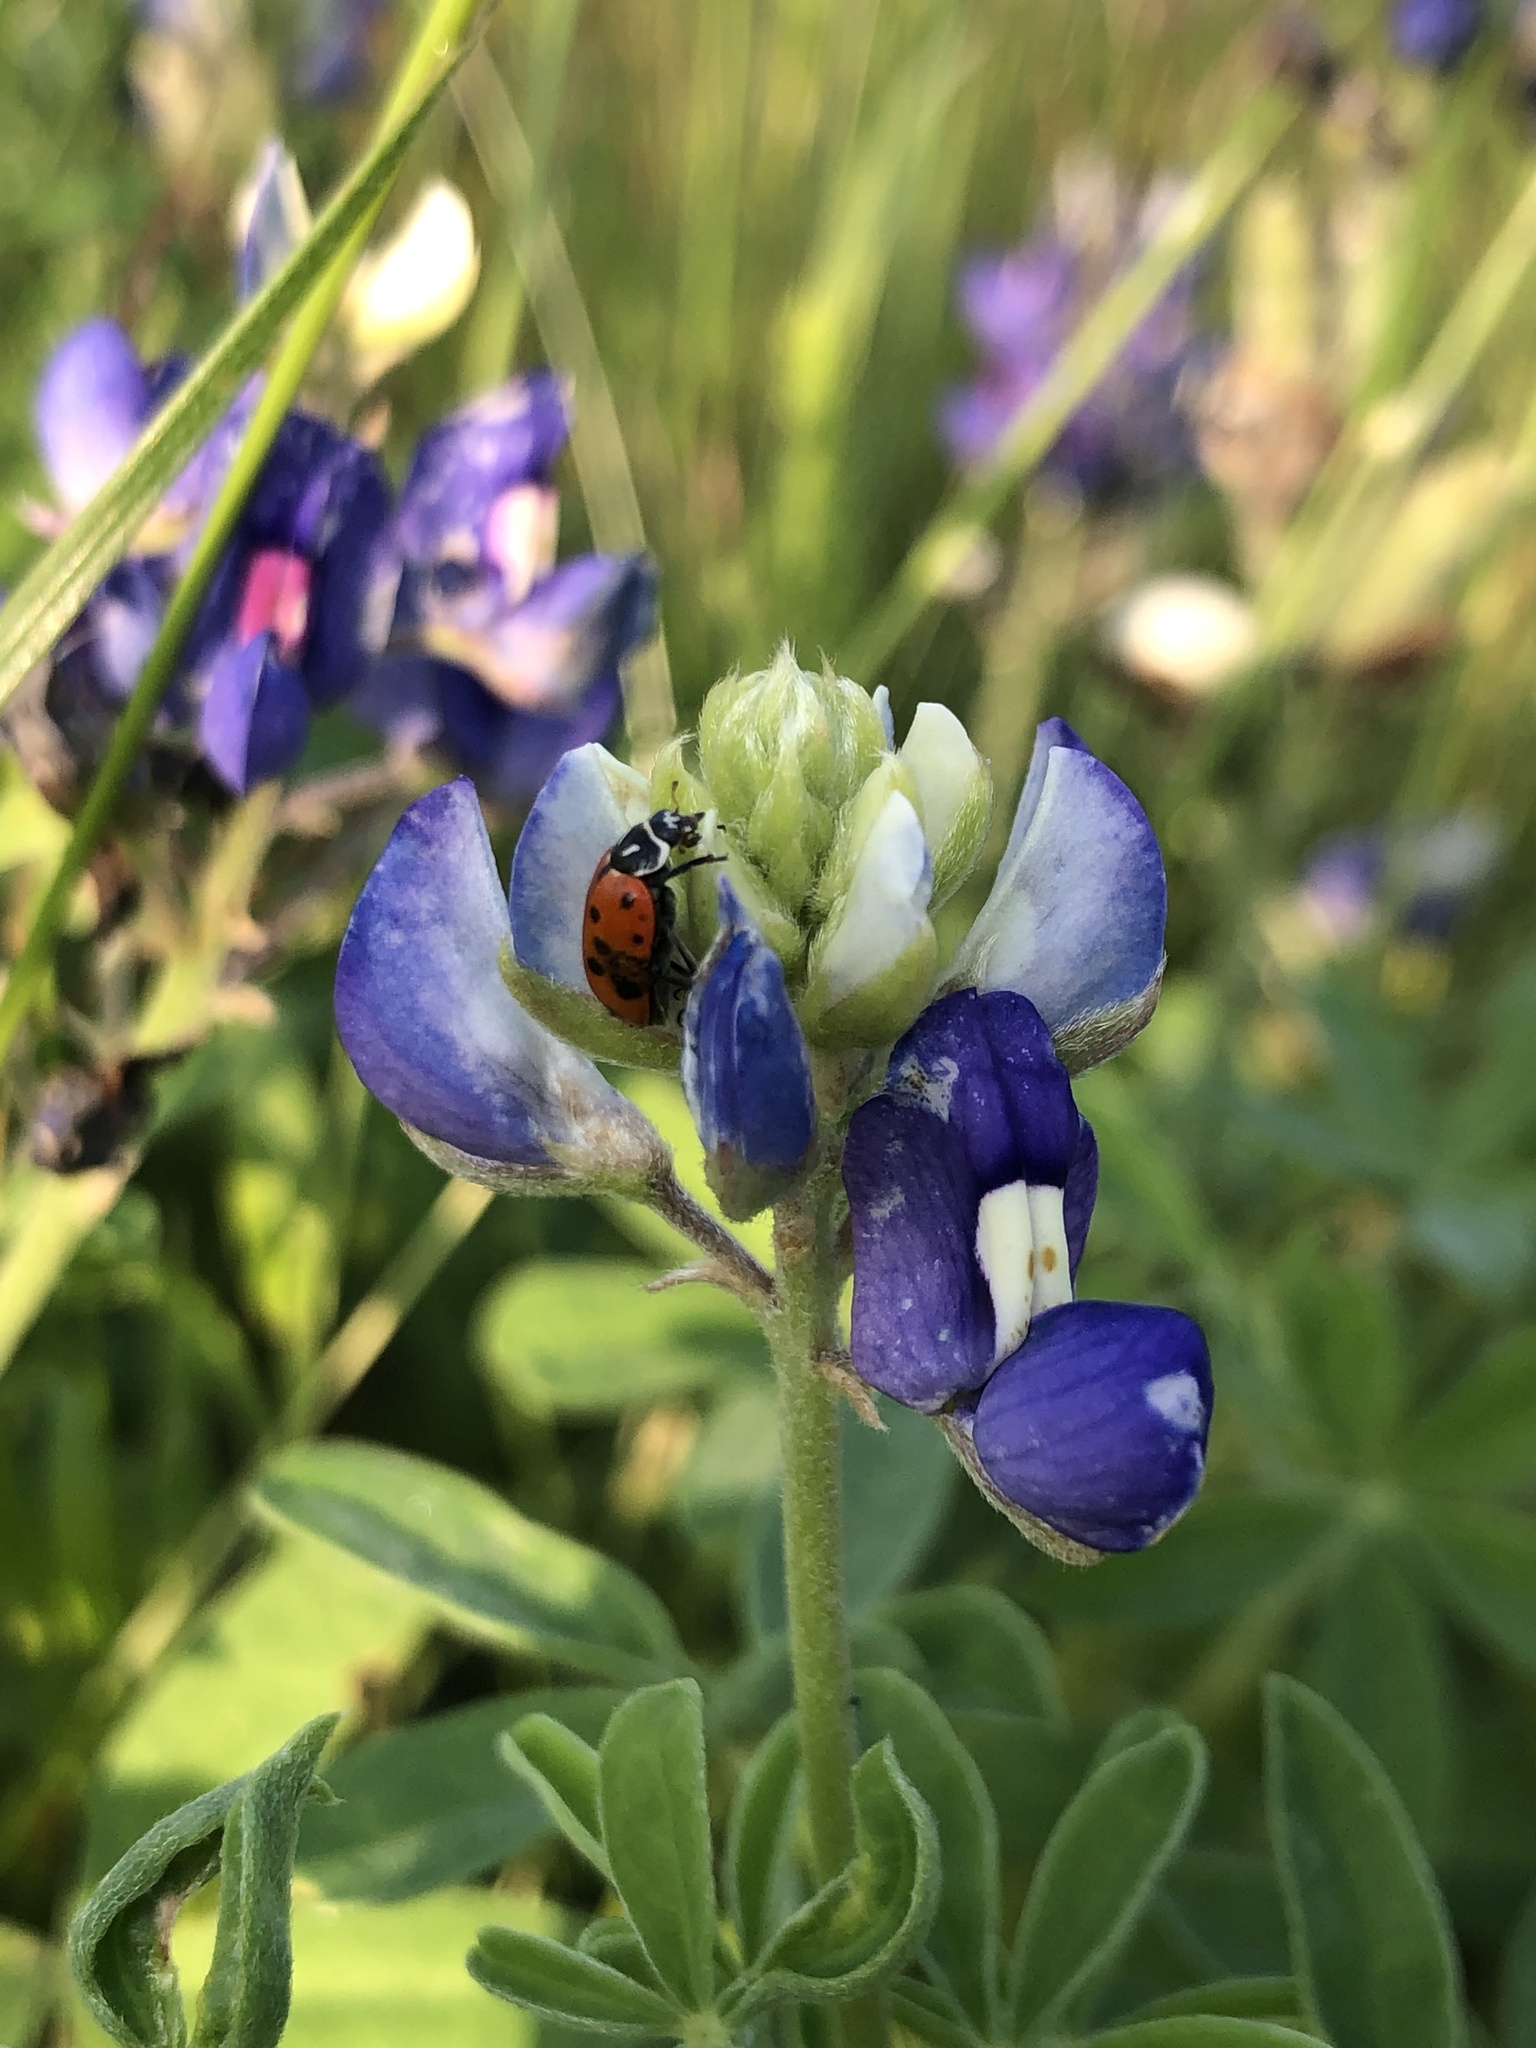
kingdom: Animalia
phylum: Arthropoda
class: Insecta
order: Coleoptera
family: Coccinellidae
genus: Hippodamia
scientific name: Hippodamia convergens
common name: Convergent lady beetle
